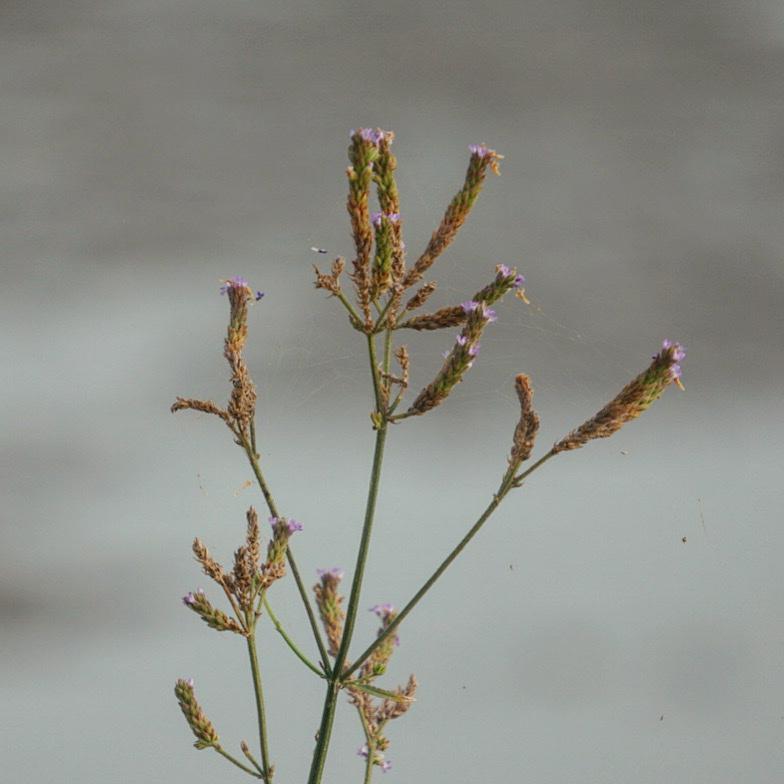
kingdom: Plantae
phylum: Tracheophyta
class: Magnoliopsida
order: Lamiales
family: Verbenaceae
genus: Verbena
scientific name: Verbena brasiliensis
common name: Brazilian vervain
